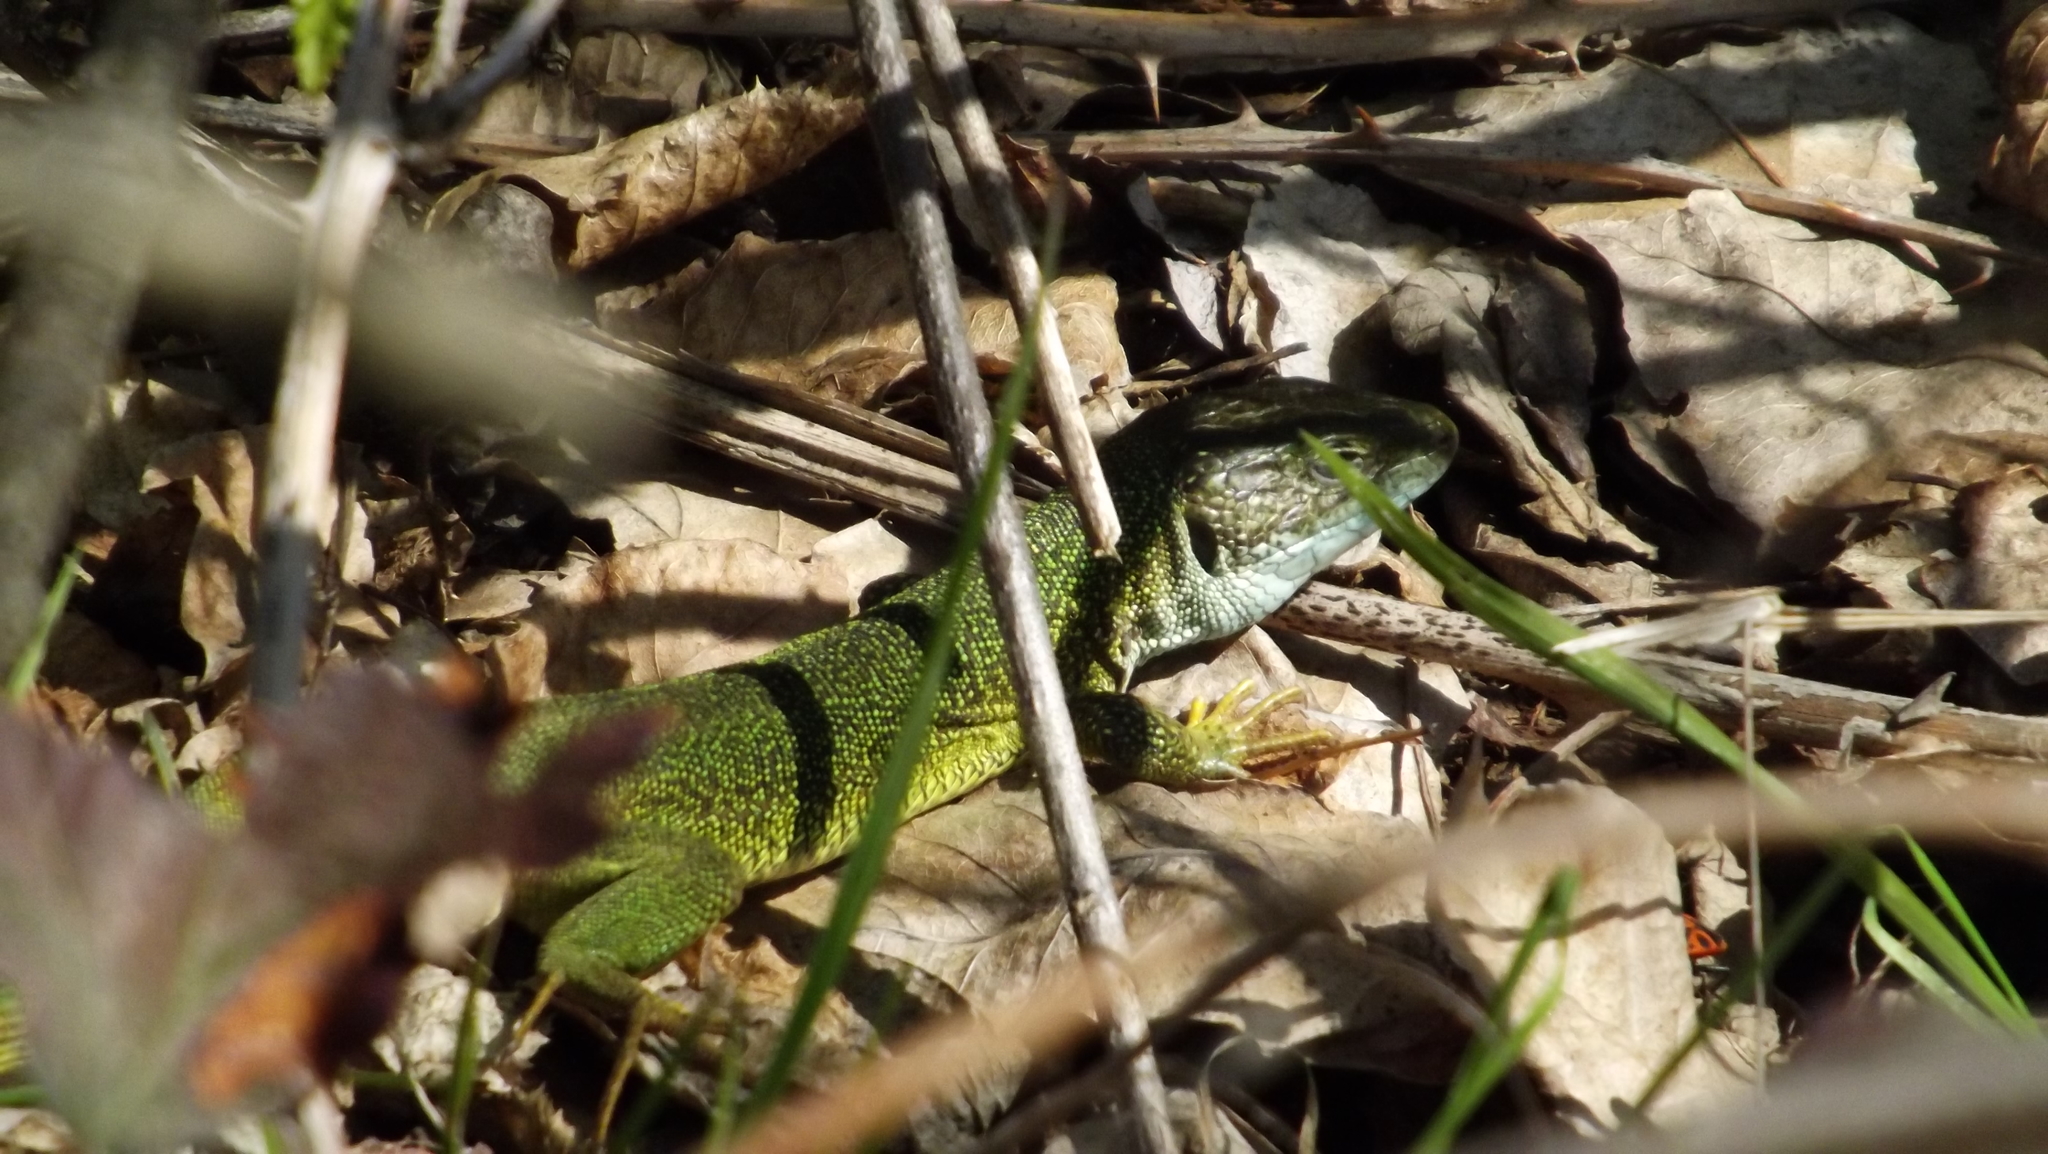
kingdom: Animalia
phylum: Chordata
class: Squamata
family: Lacertidae
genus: Lacerta
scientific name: Lacerta viridis
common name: European green lizard
